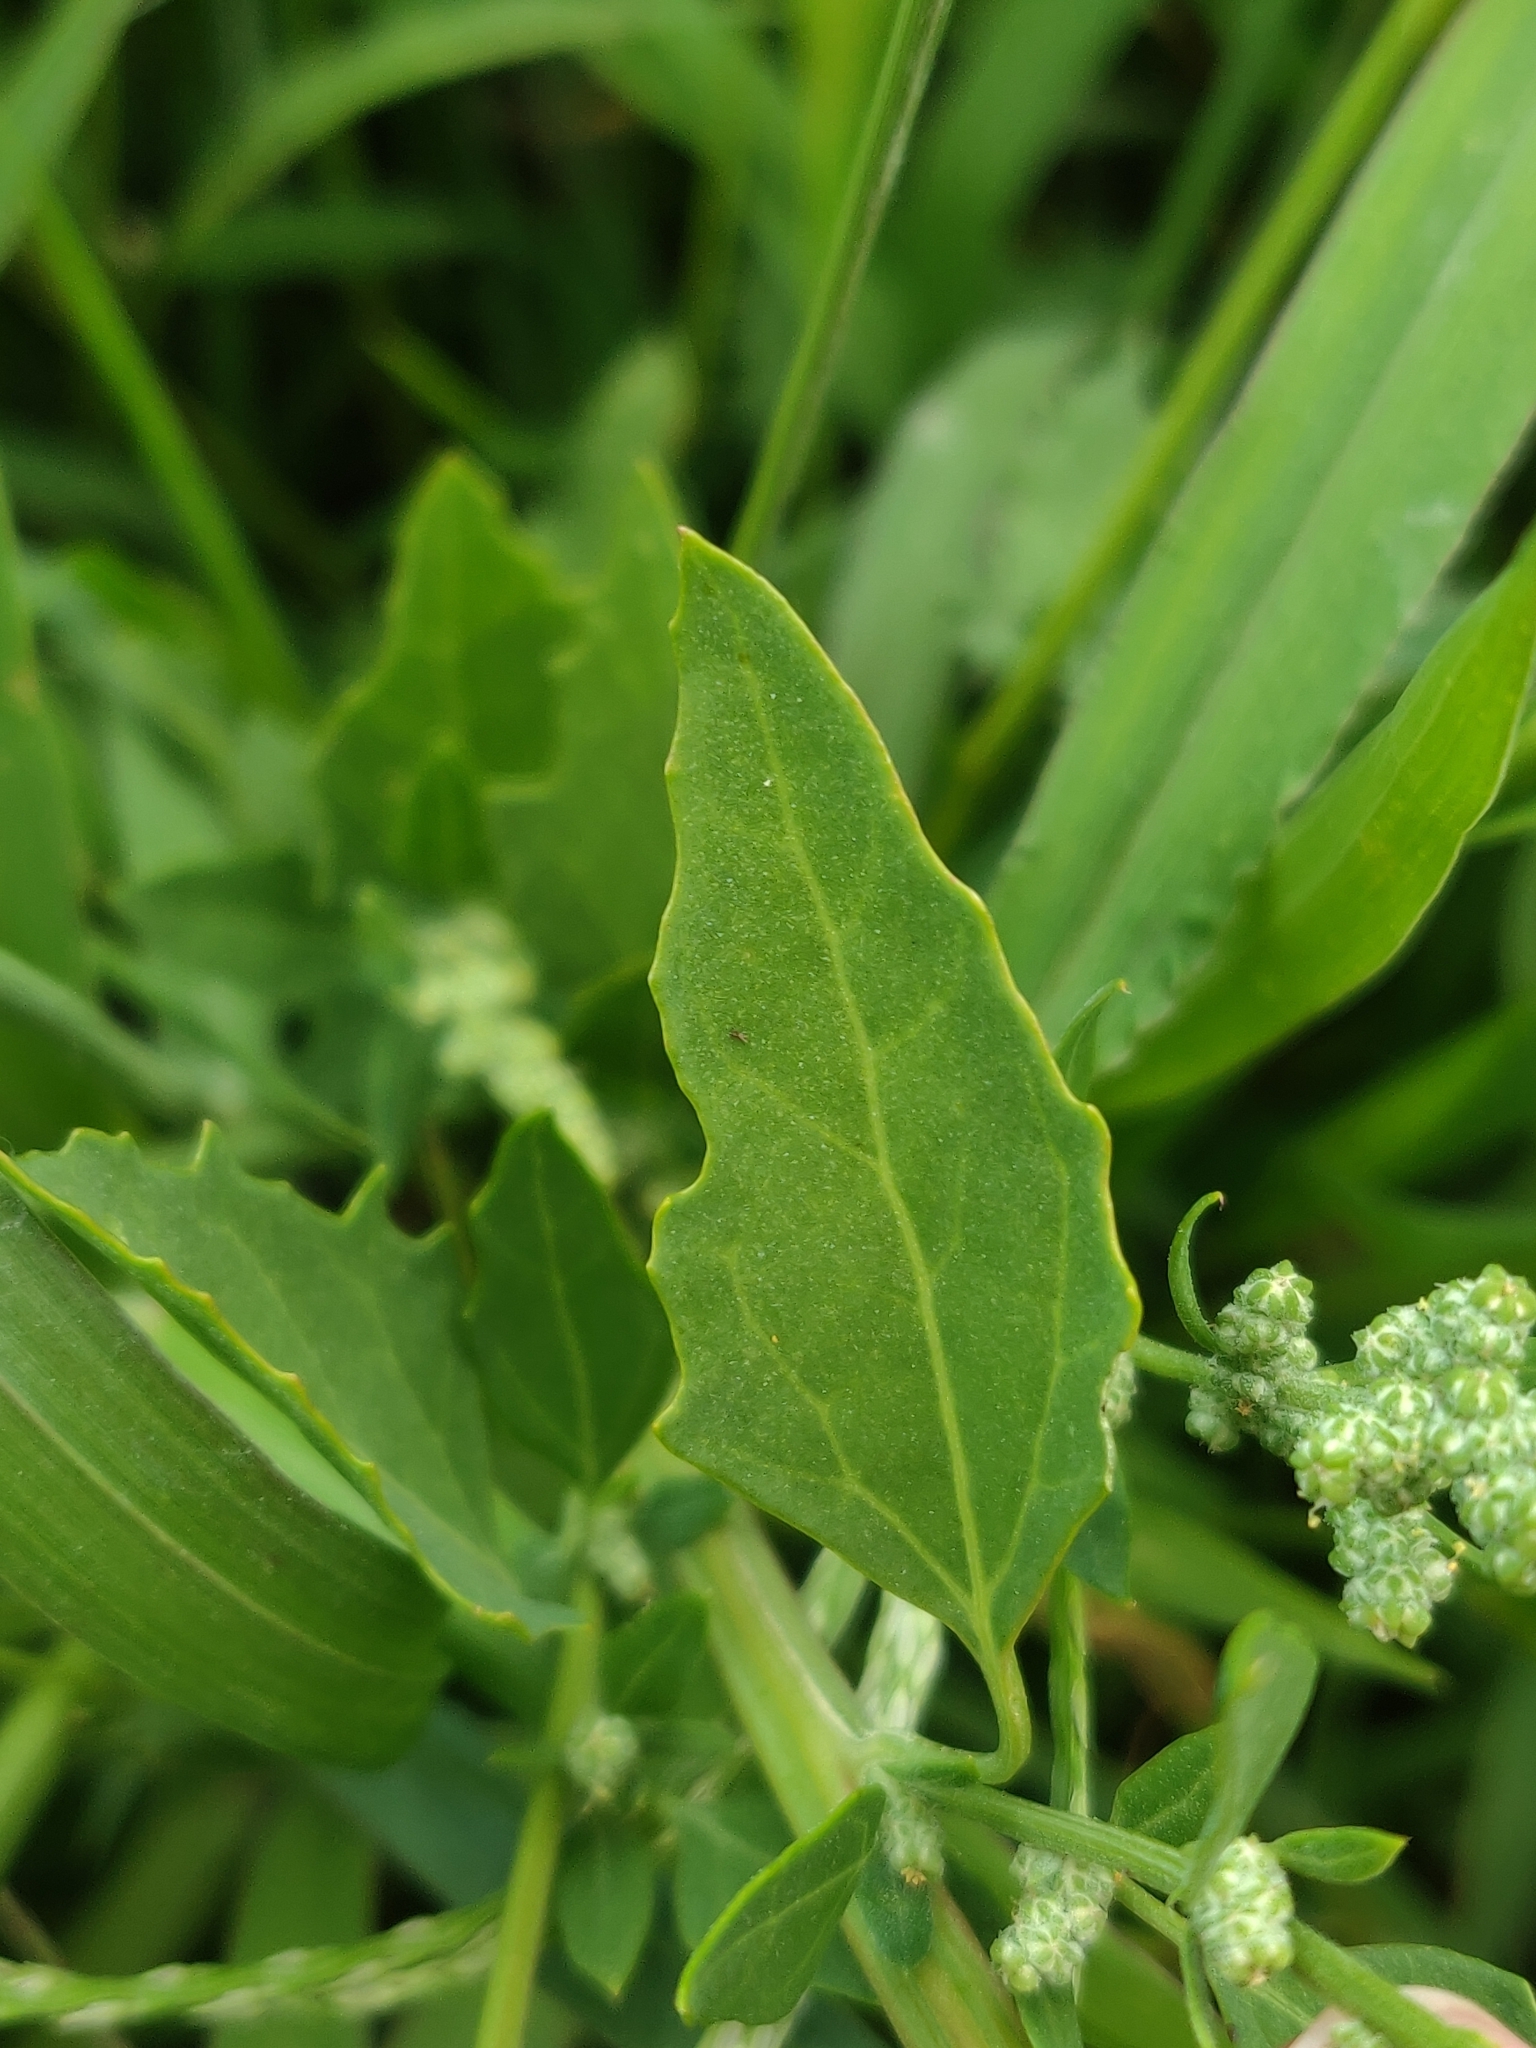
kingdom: Plantae
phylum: Tracheophyta
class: Magnoliopsida
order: Caryophyllales
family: Amaranthaceae
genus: Chenopodium
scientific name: Chenopodium album
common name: Fat-hen
